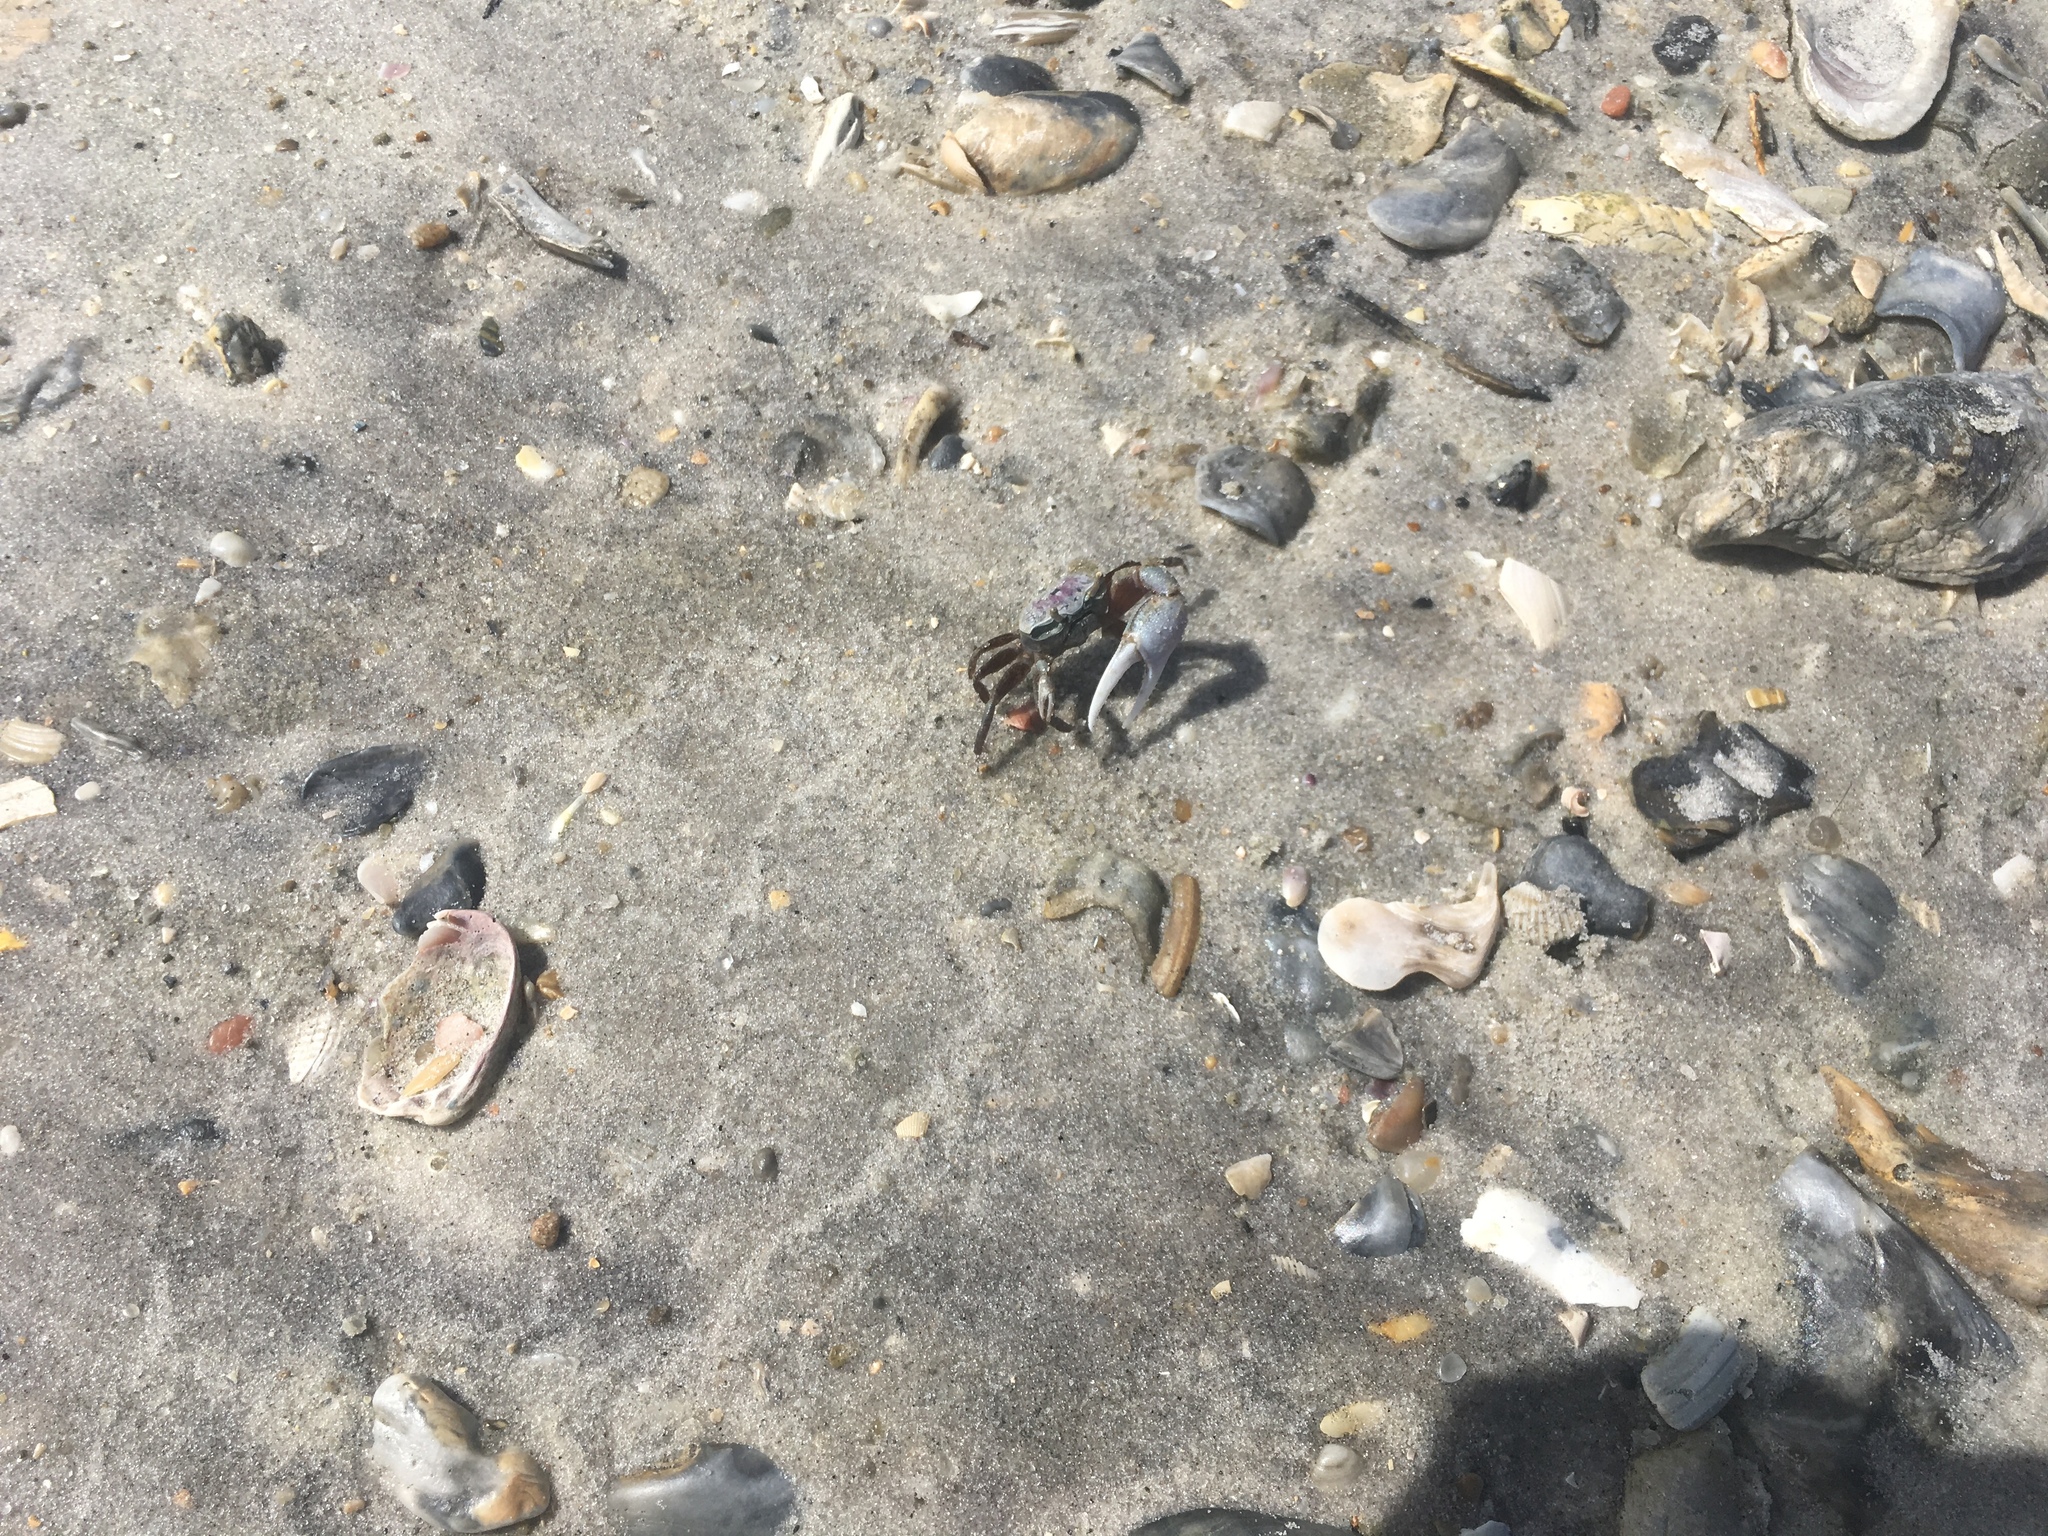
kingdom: Animalia
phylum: Arthropoda
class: Malacostraca
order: Decapoda
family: Ocypodidae
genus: Leptuca
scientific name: Leptuca pugilator
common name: Atlantic sand fiddler crab
